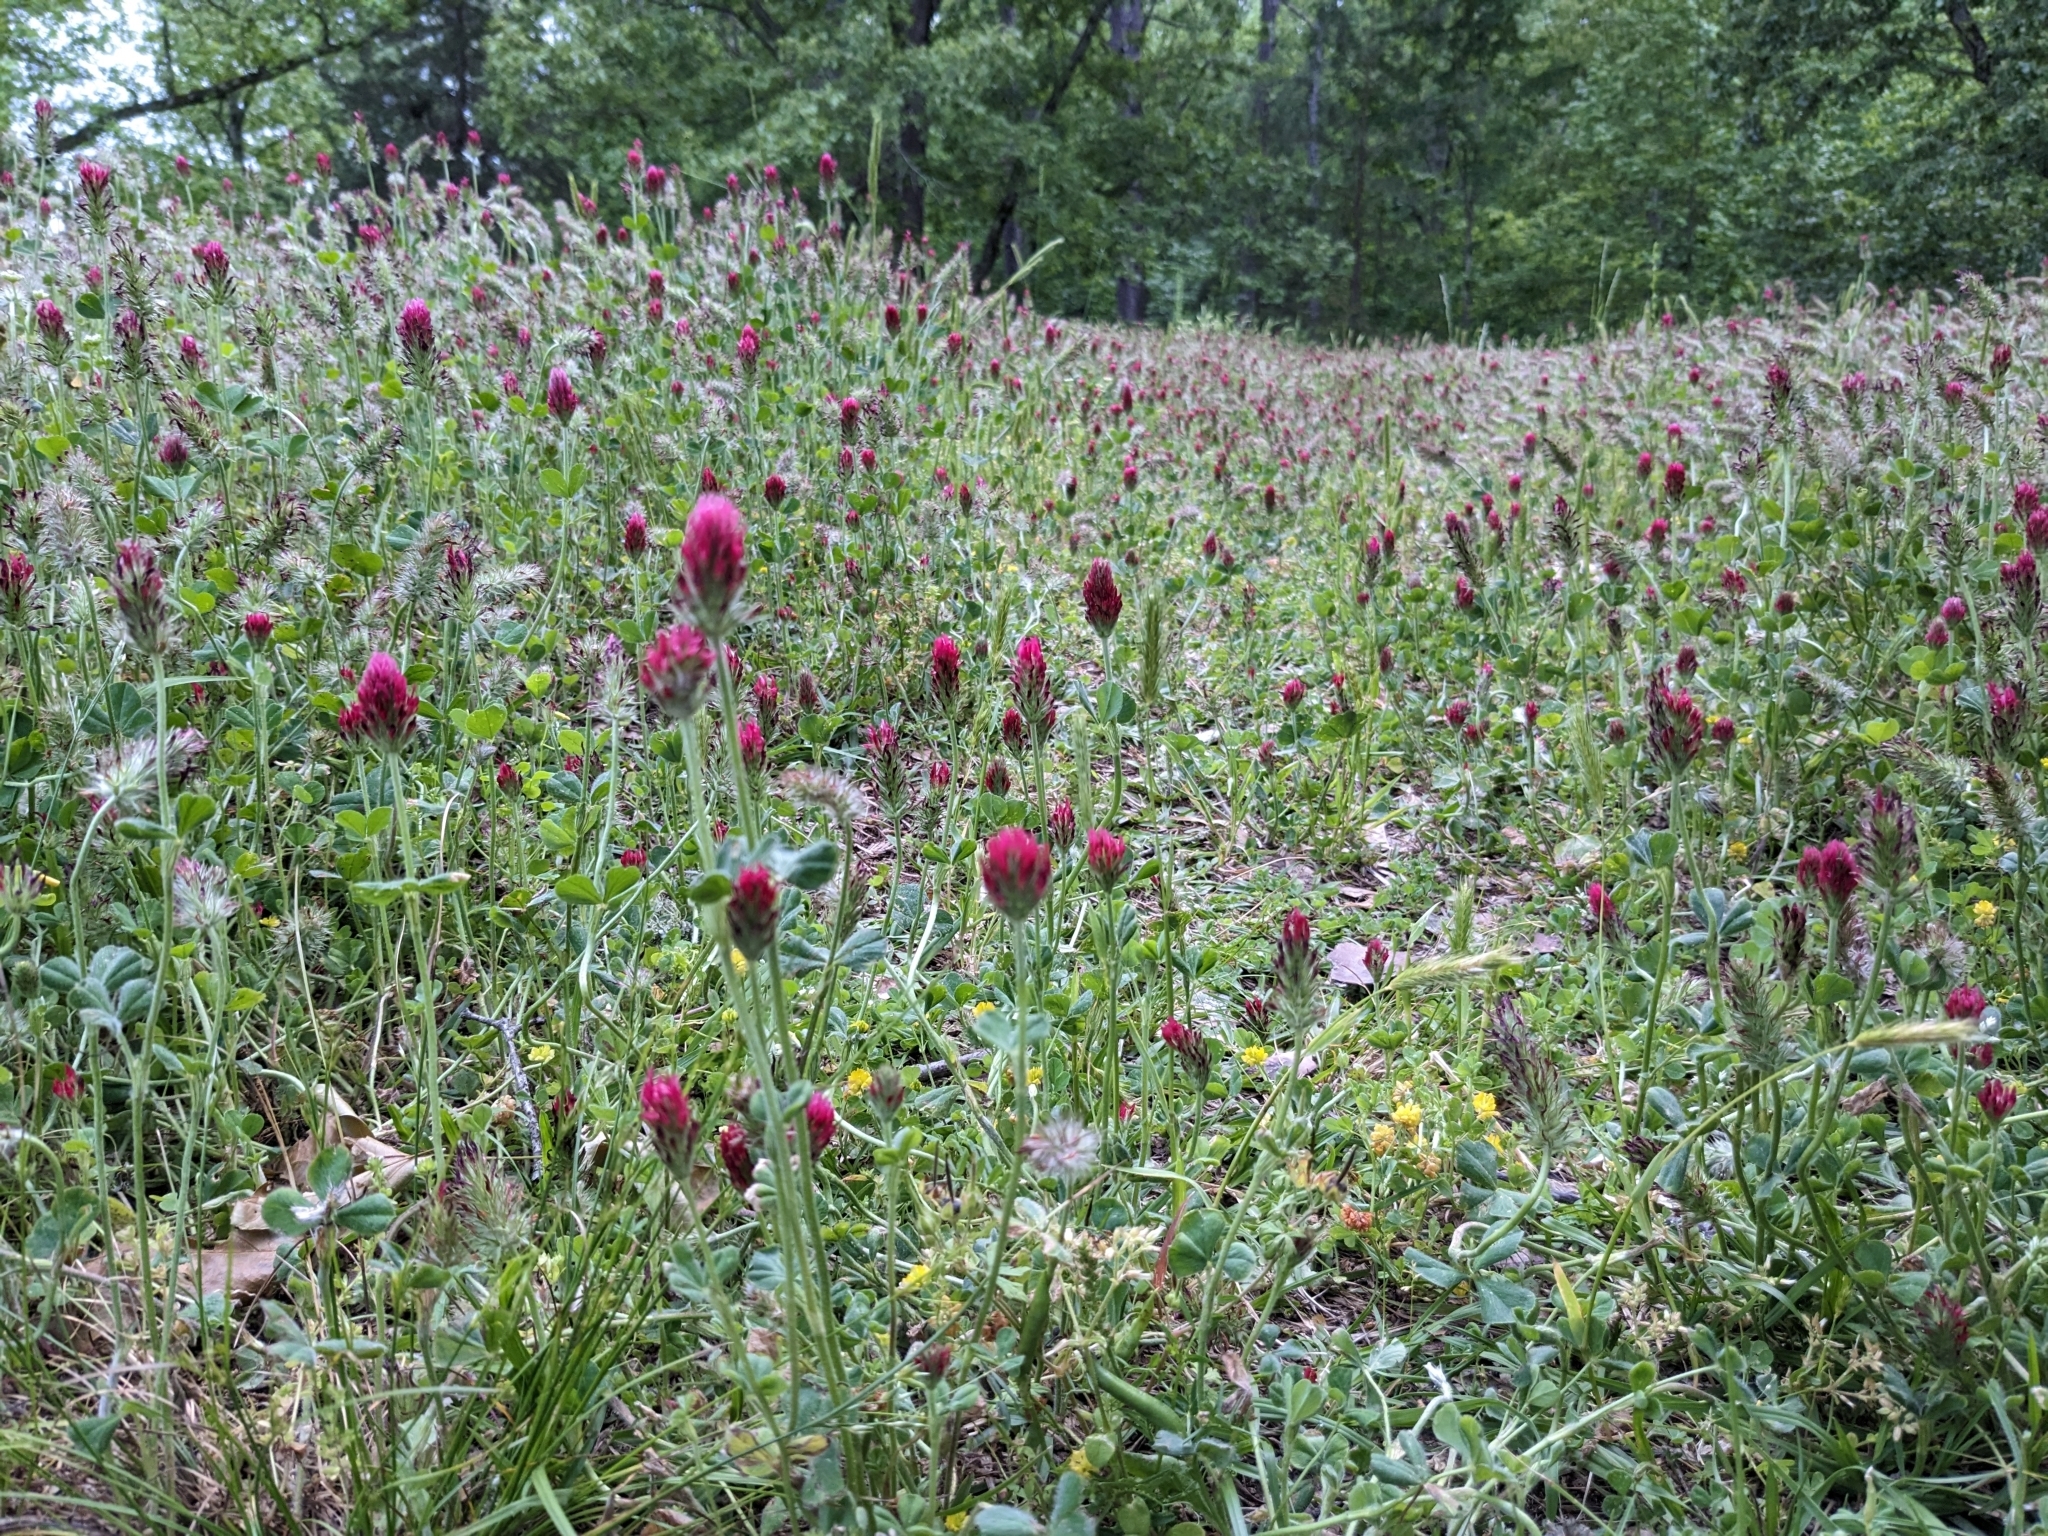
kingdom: Plantae
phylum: Tracheophyta
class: Magnoliopsida
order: Fabales
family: Fabaceae
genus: Trifolium
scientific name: Trifolium incarnatum
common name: Crimson clover
